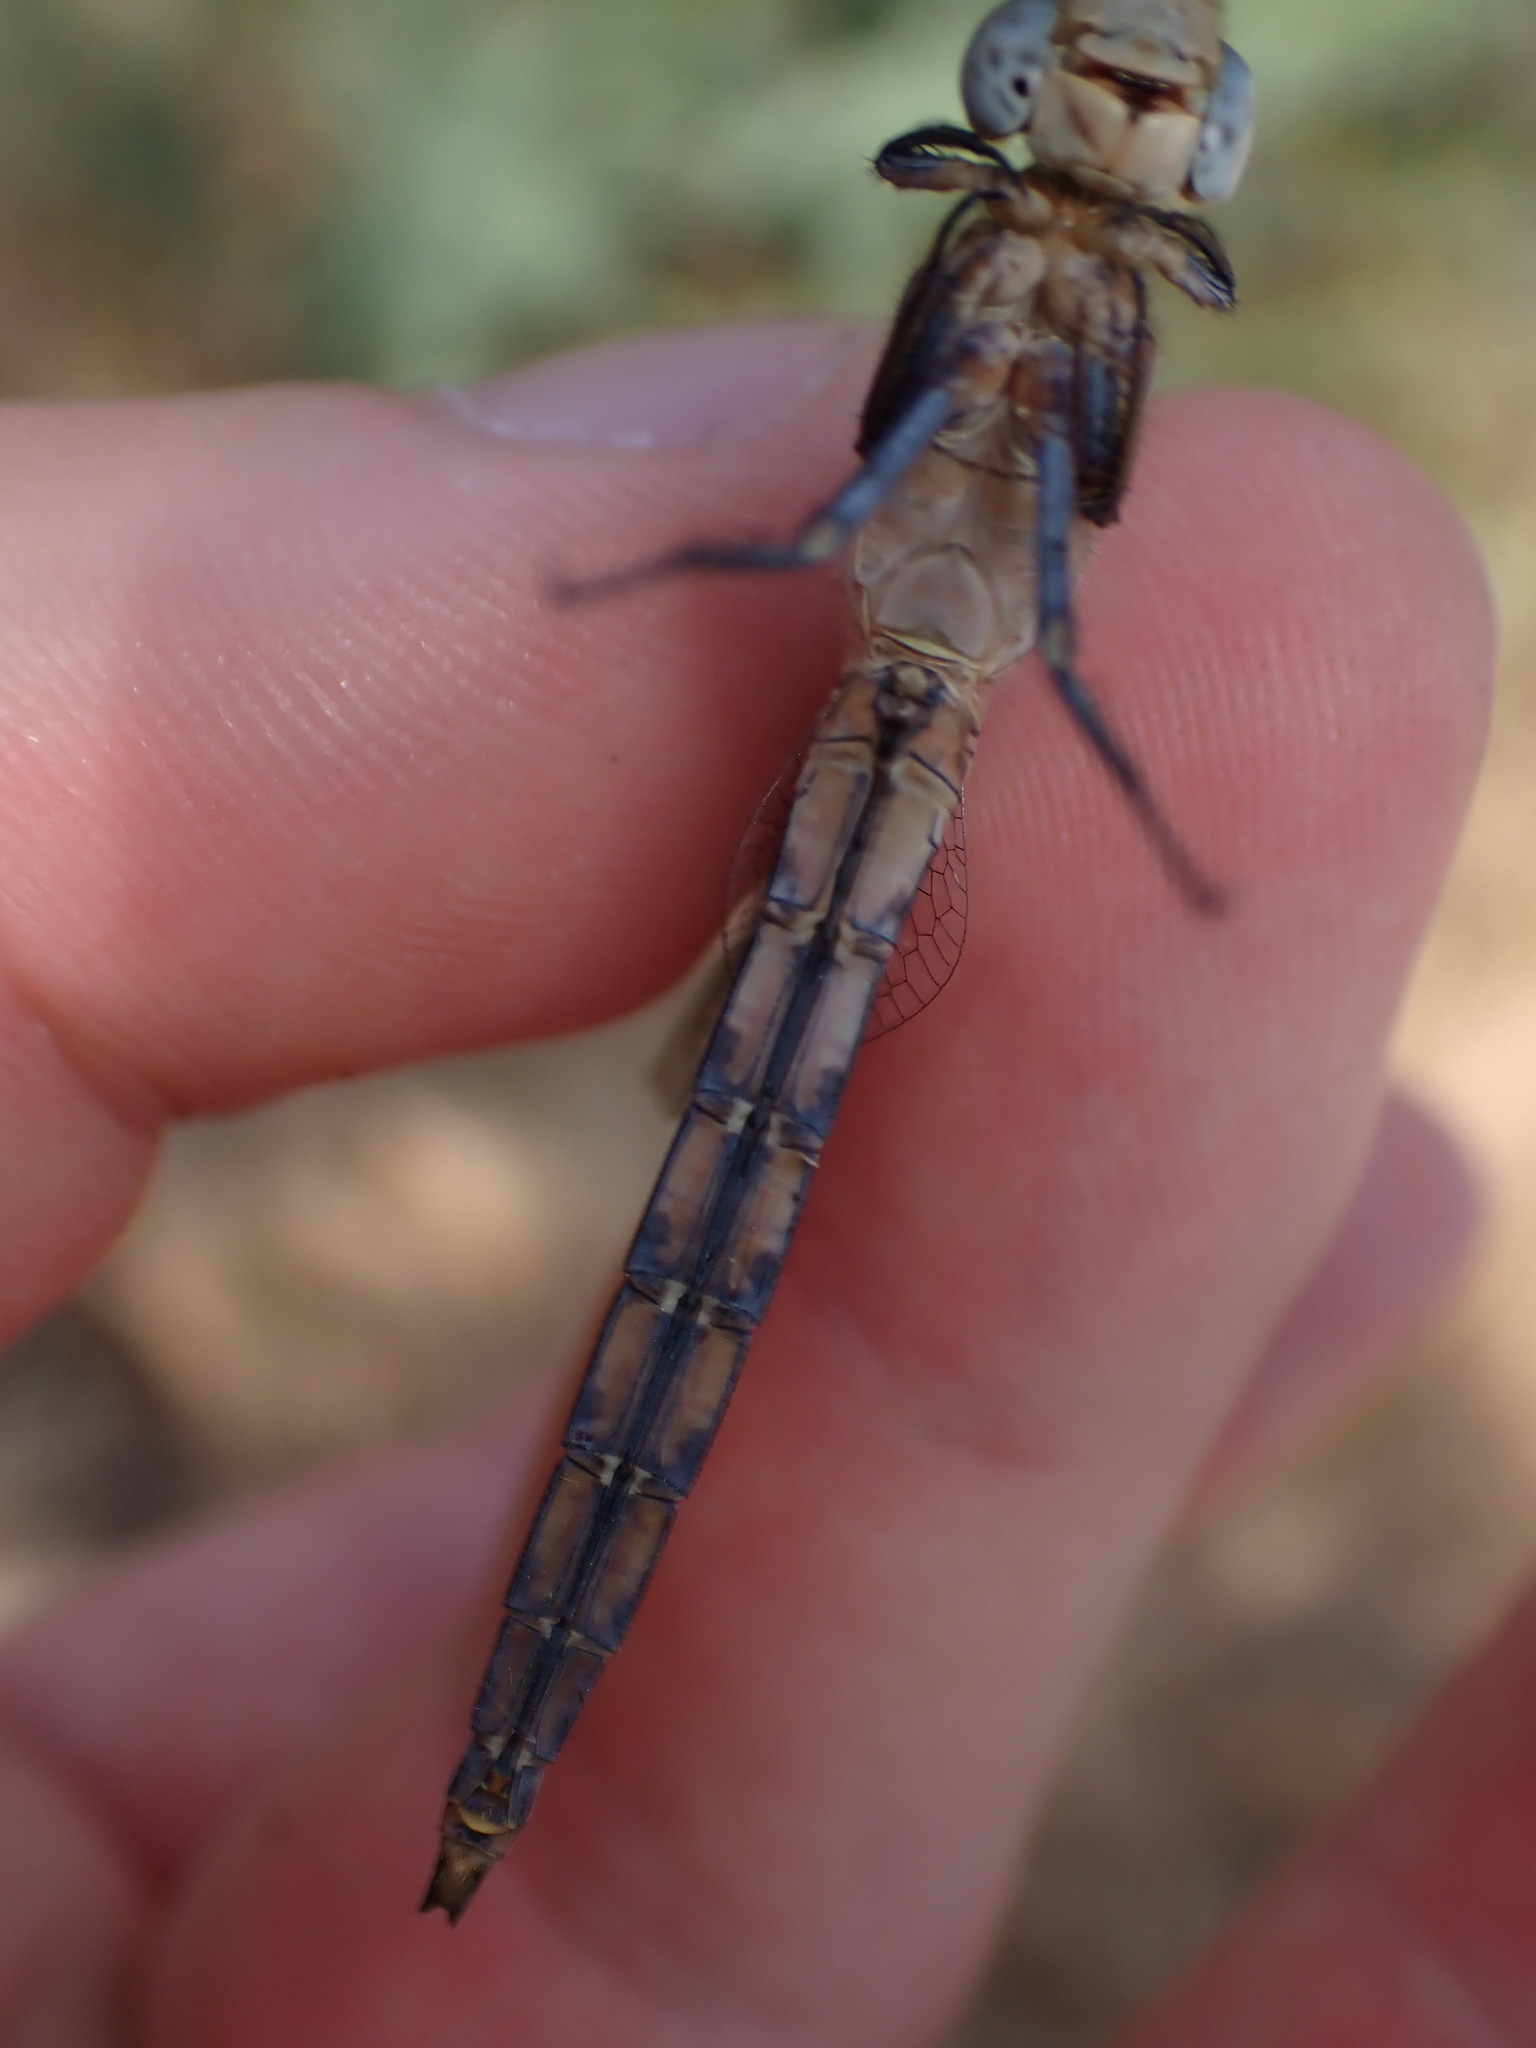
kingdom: Animalia
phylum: Arthropoda
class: Insecta
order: Odonata
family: Libellulidae
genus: Orthetrum
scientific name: Orthetrum coerulescens
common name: Keeled skimmer
